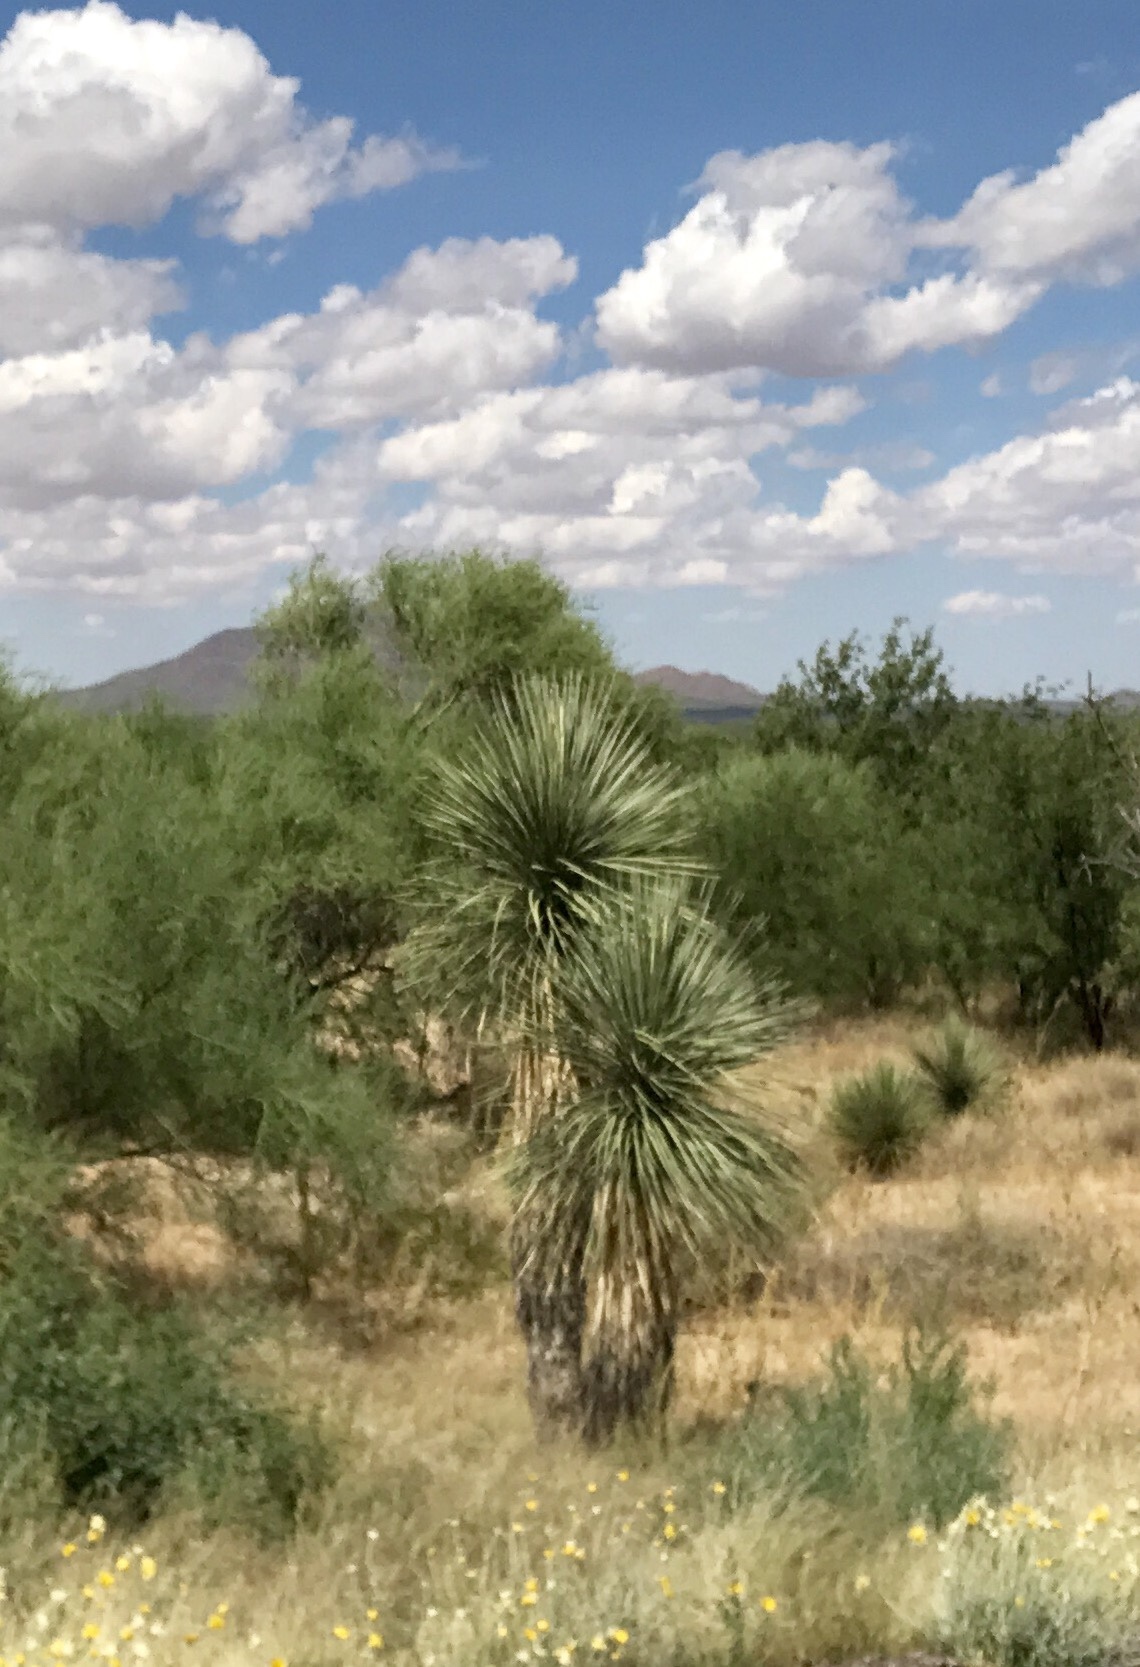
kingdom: Plantae
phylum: Tracheophyta
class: Liliopsida
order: Asparagales
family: Asparagaceae
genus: Yucca
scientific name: Yucca elata
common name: Palmella
